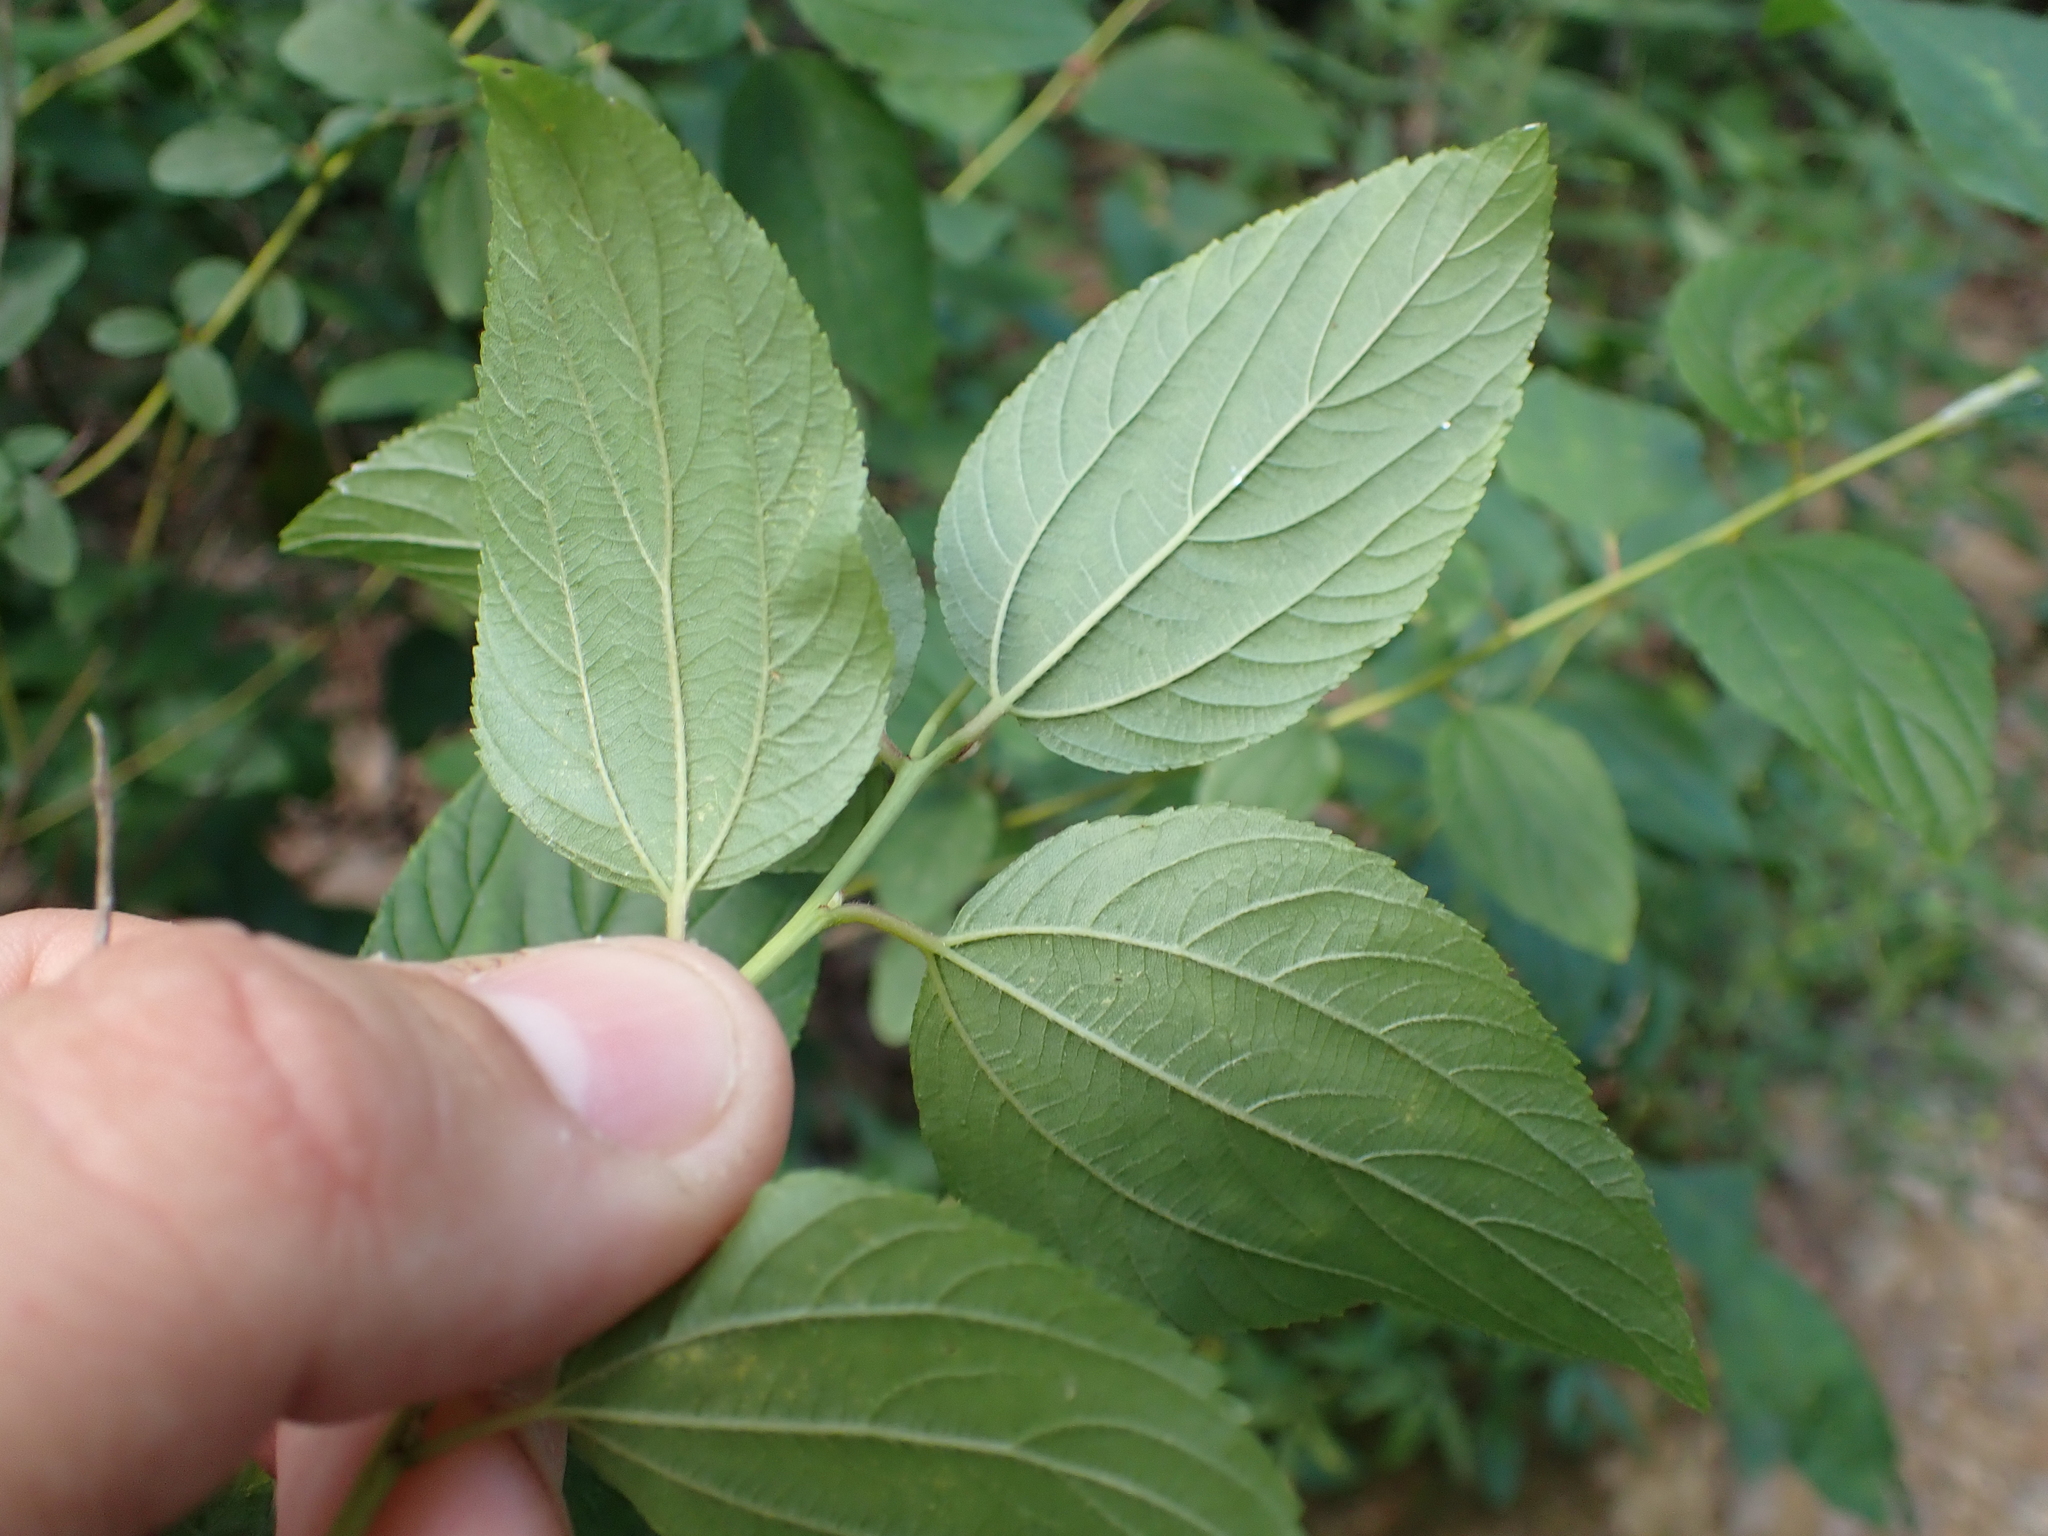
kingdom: Plantae
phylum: Tracheophyta
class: Magnoliopsida
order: Rosales
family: Rhamnaceae
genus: Ceanothus
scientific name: Ceanothus americanus
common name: Redroot
